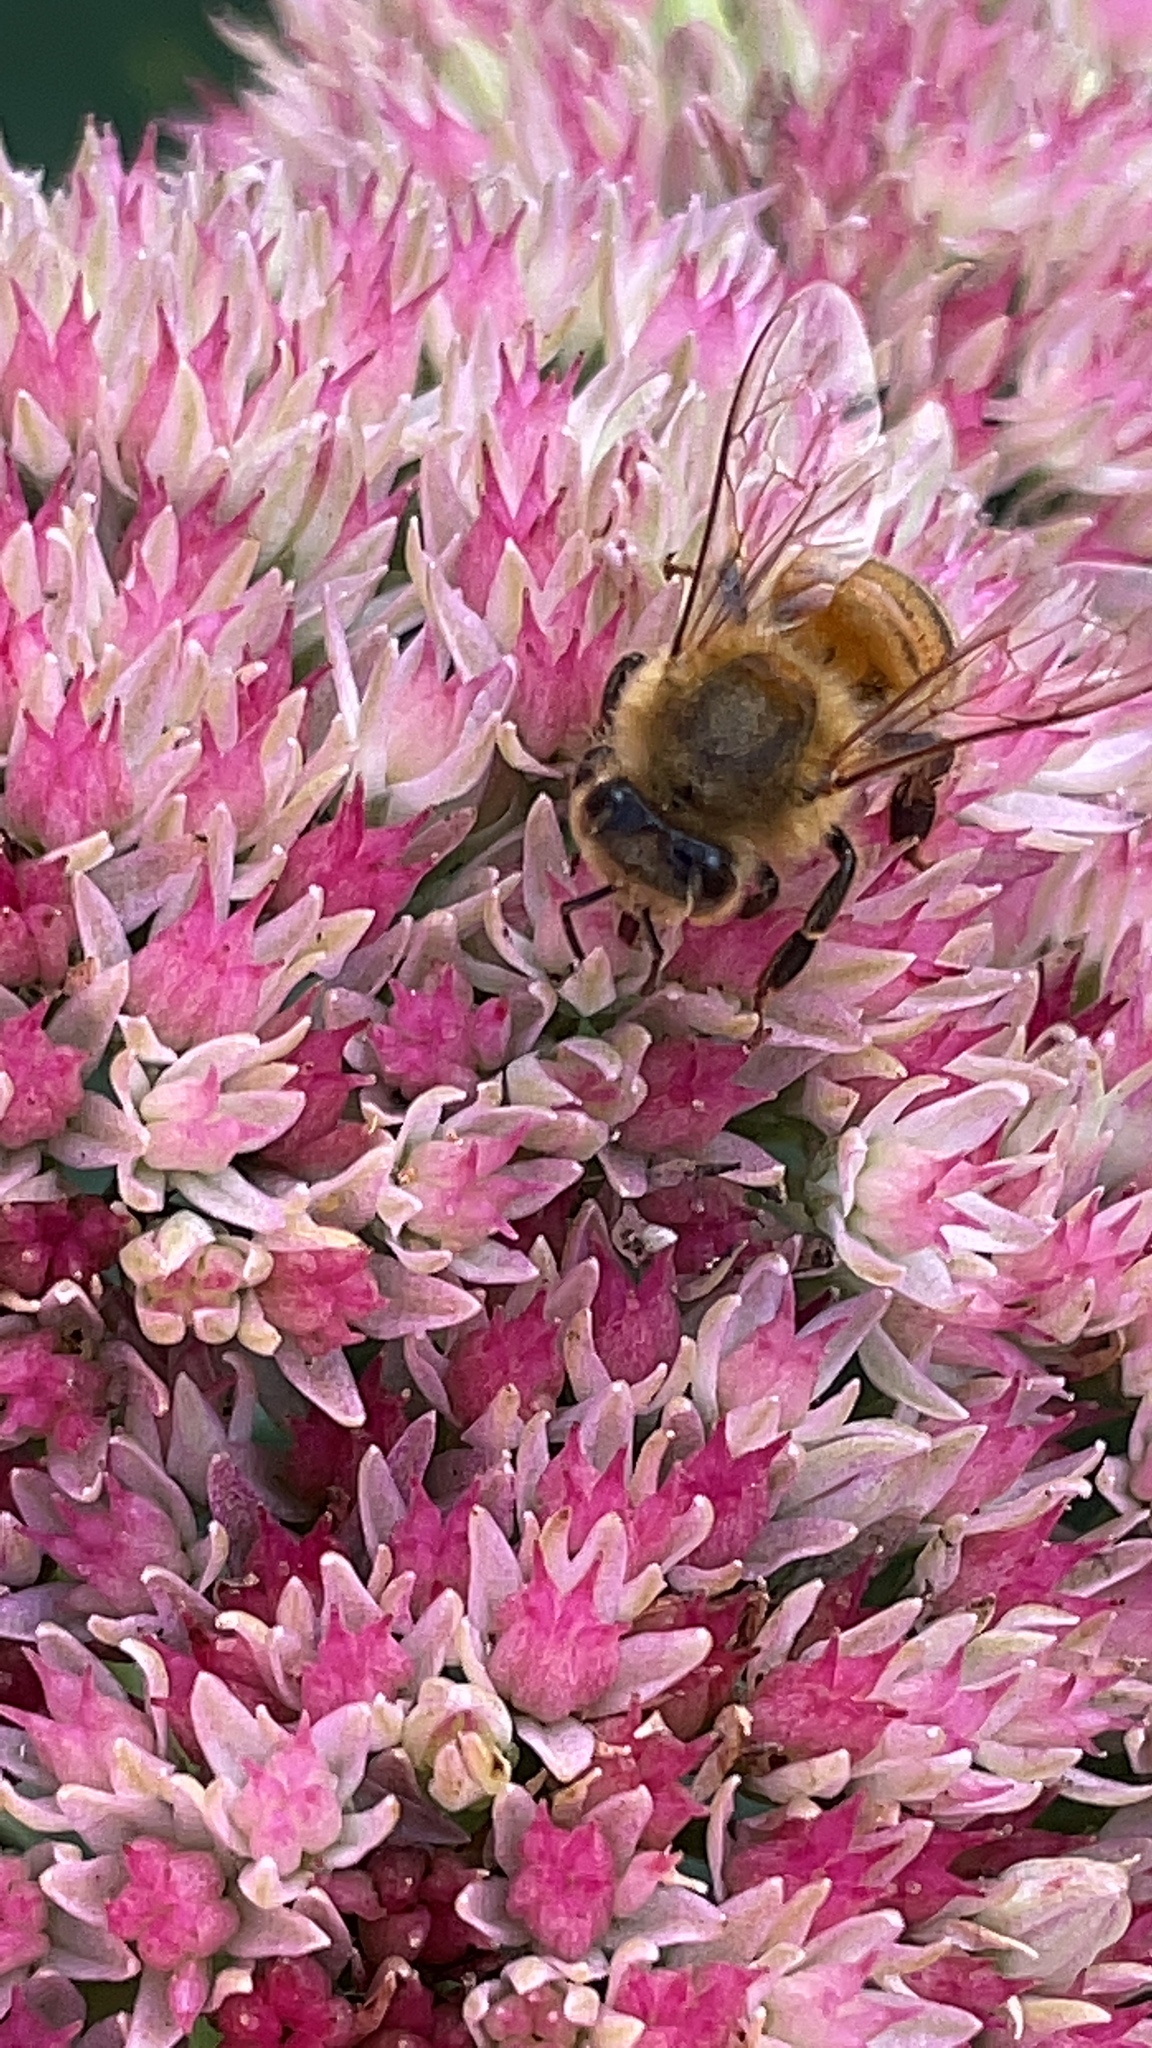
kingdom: Animalia
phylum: Arthropoda
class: Insecta
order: Hymenoptera
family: Apidae
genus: Apis
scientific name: Apis mellifera
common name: Honey bee
